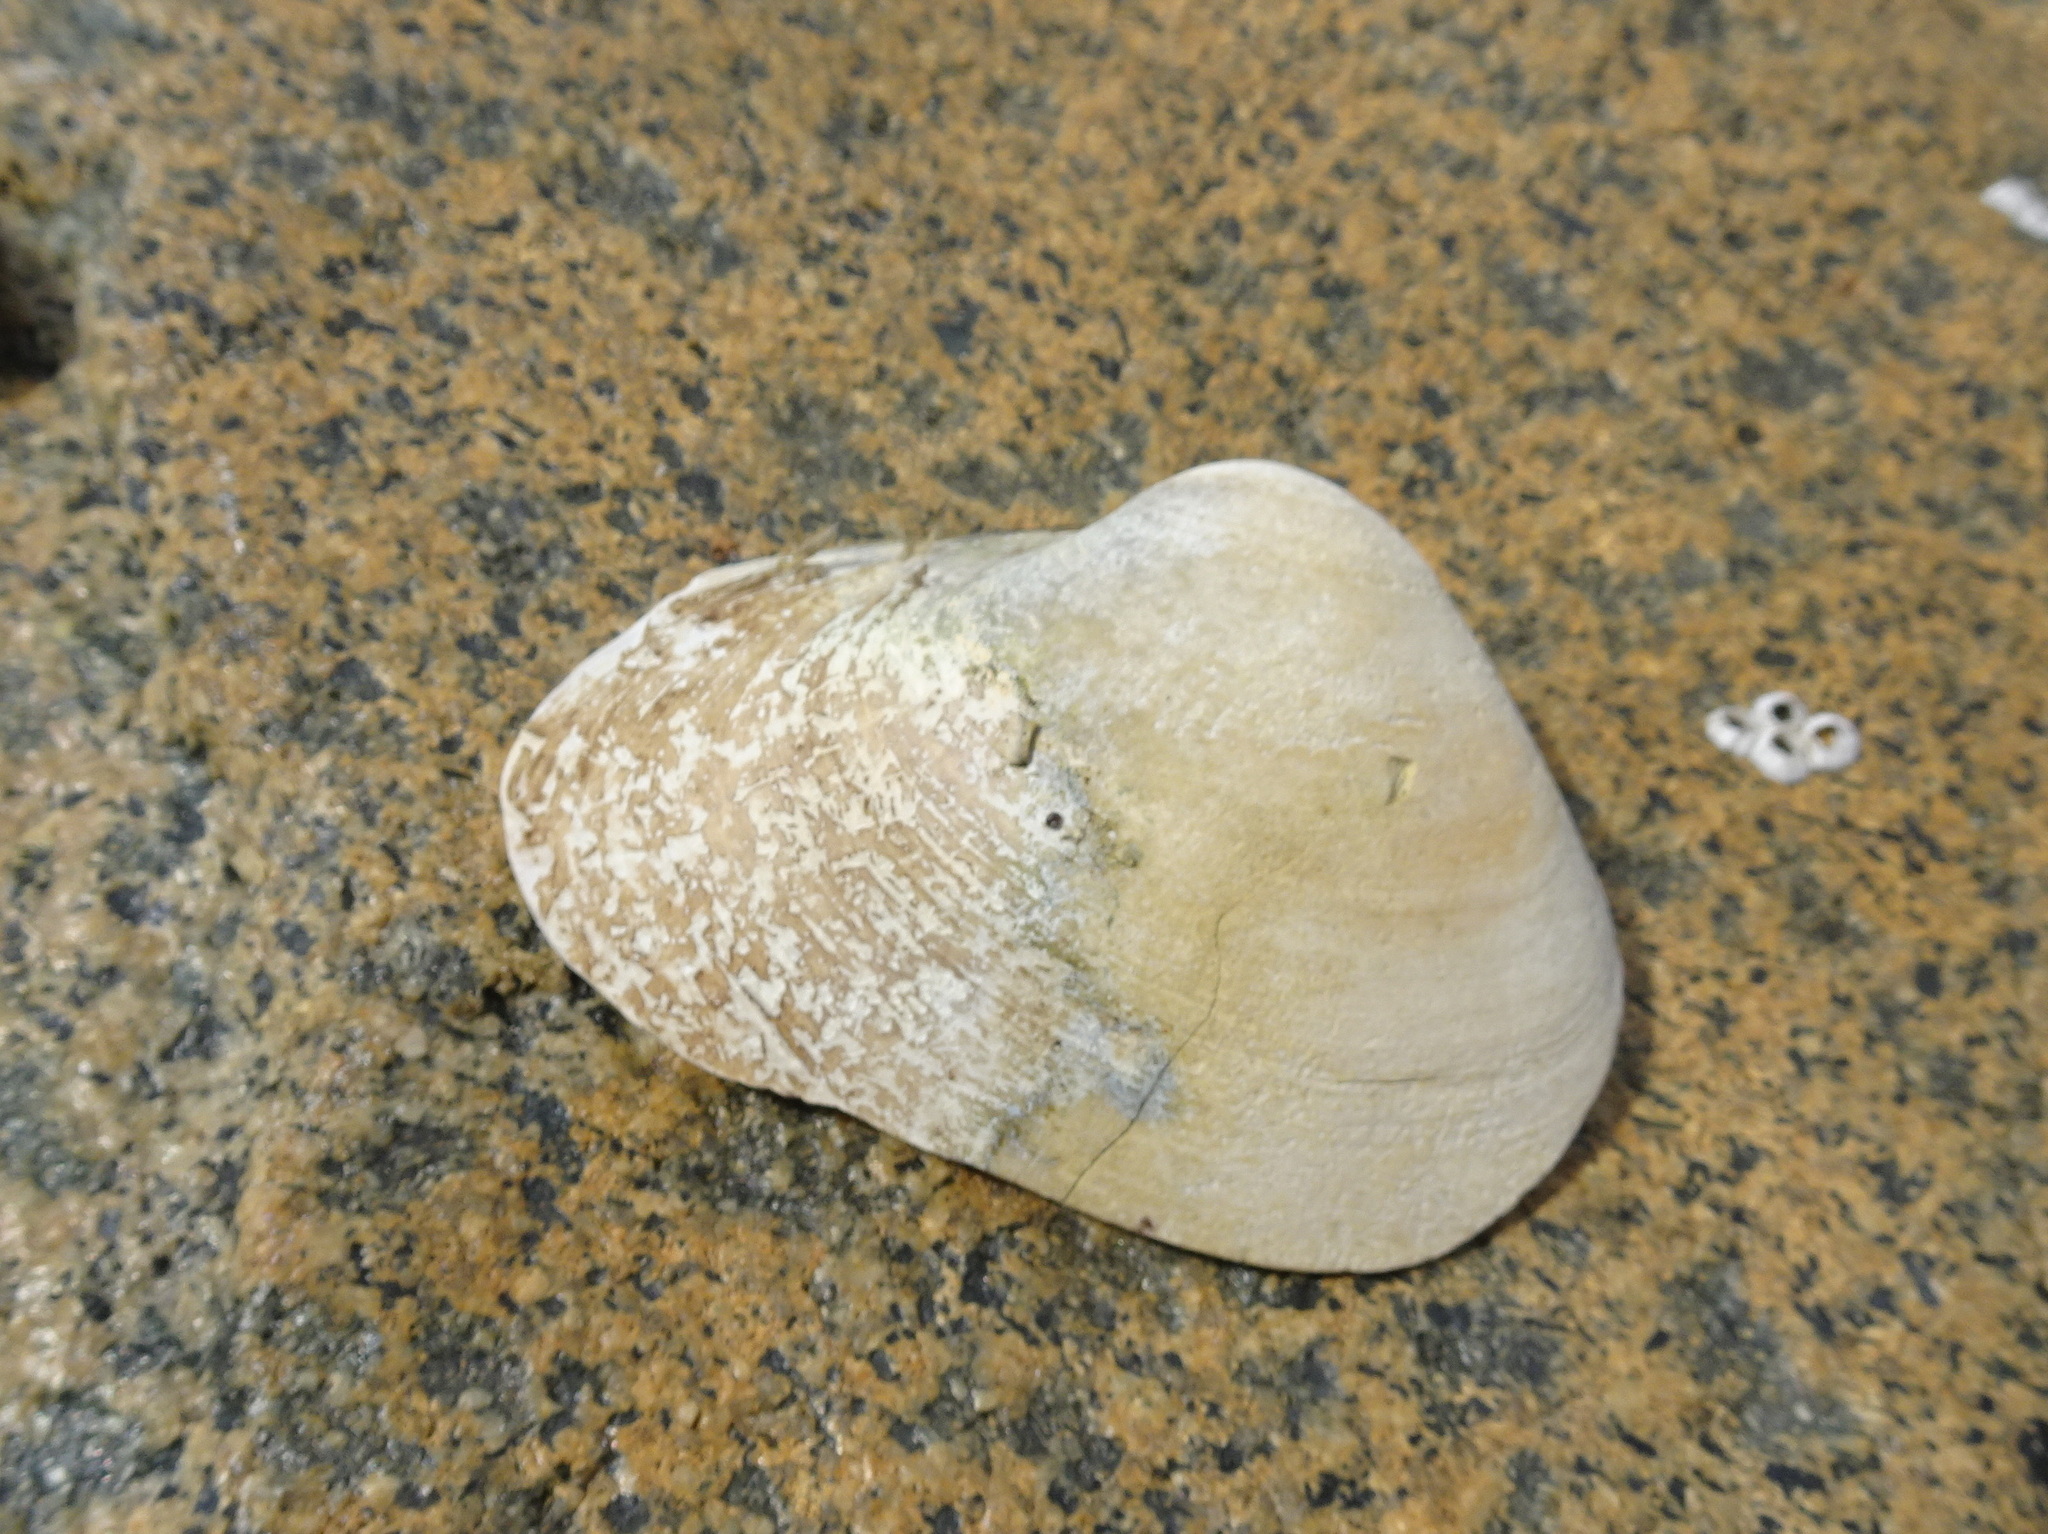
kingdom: Animalia
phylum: Mollusca
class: Bivalvia
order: Venerida
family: Mactridae
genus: Spisula
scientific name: Spisula solidissima
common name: Atlantic surf clam
